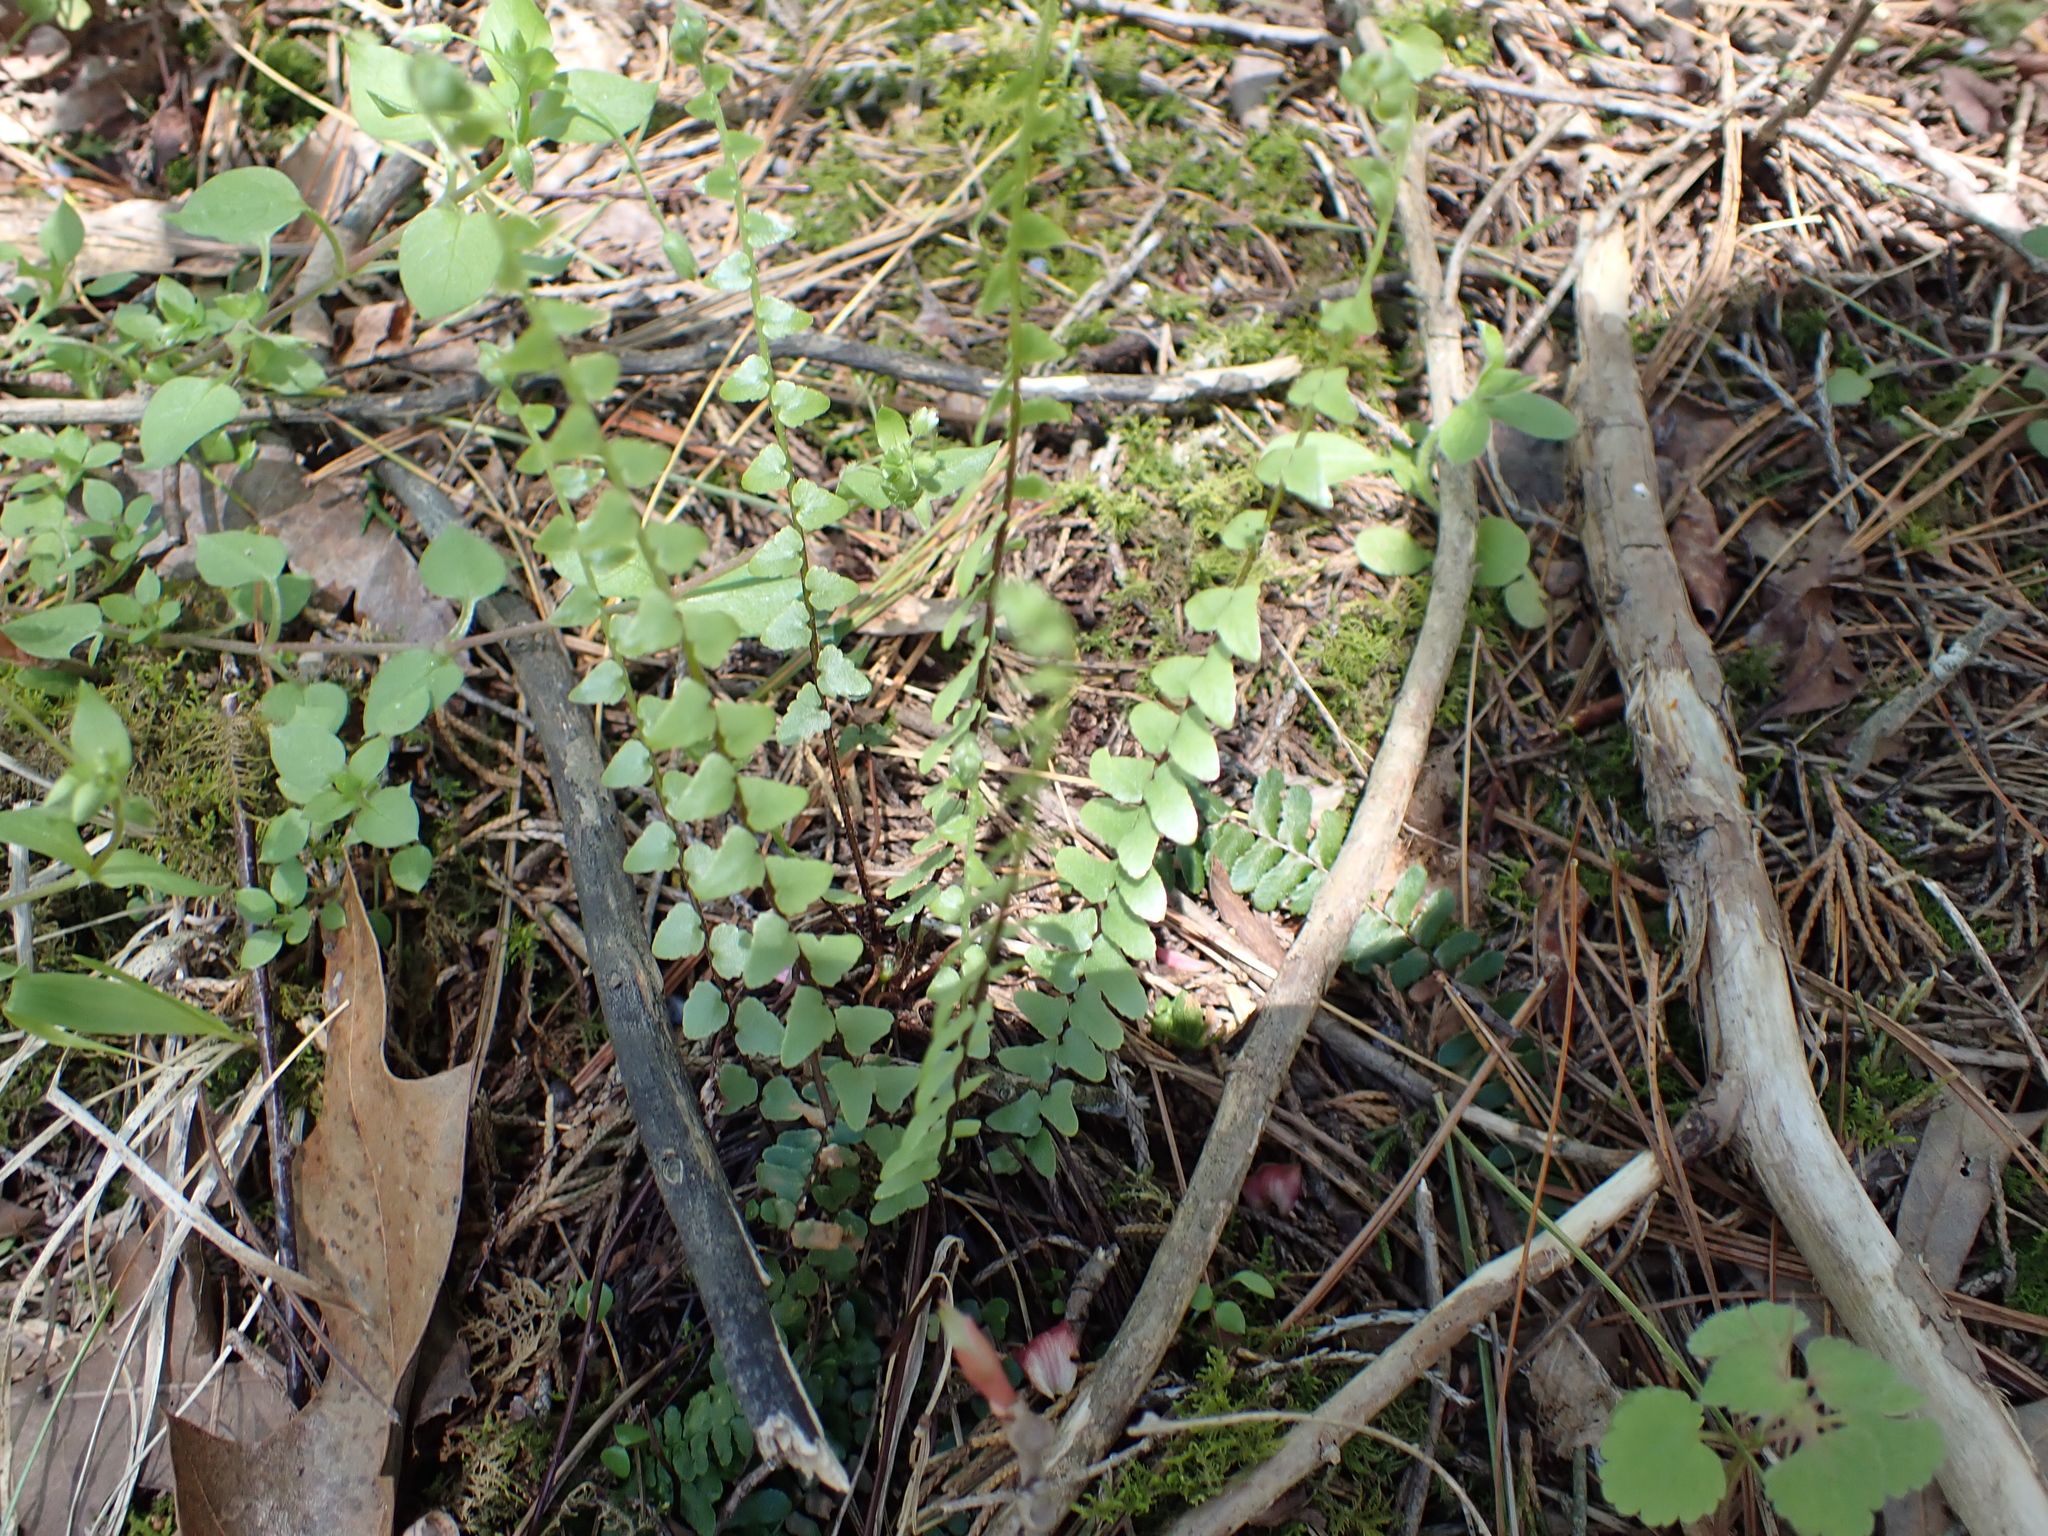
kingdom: Plantae
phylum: Tracheophyta
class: Polypodiopsida
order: Polypodiales
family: Aspleniaceae
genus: Asplenium
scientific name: Asplenium platyneuron
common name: Ebony spleenwort
